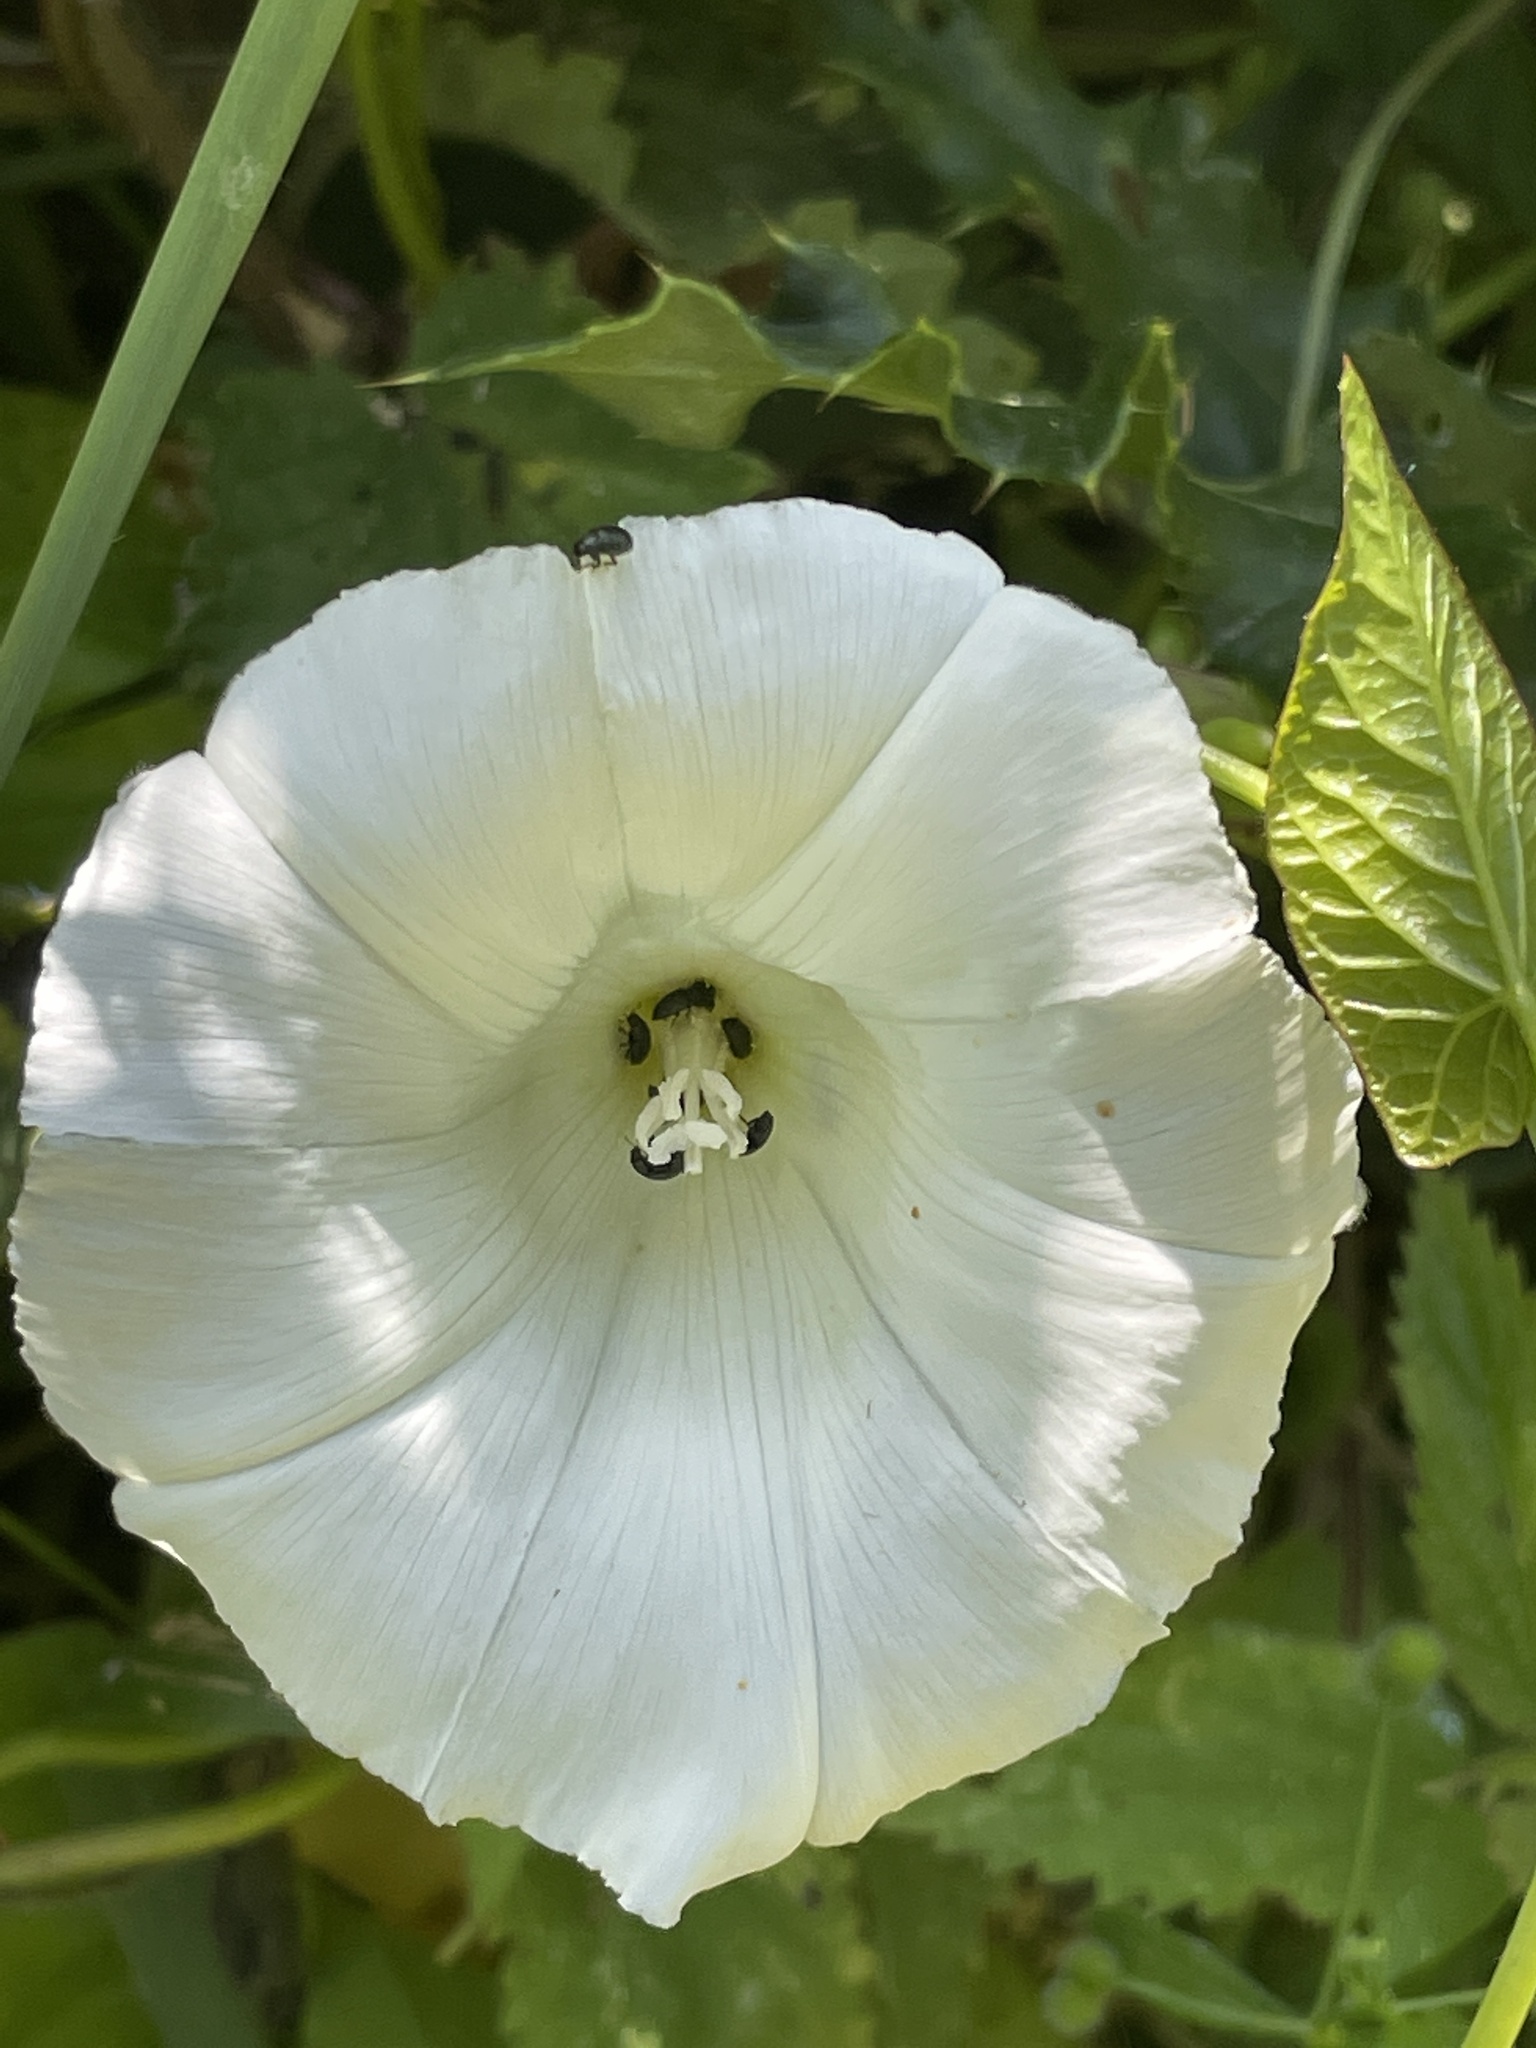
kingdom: Plantae
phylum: Tracheophyta
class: Magnoliopsida
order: Solanales
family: Convolvulaceae
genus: Calystegia
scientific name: Calystegia sepium
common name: Hedge bindweed
